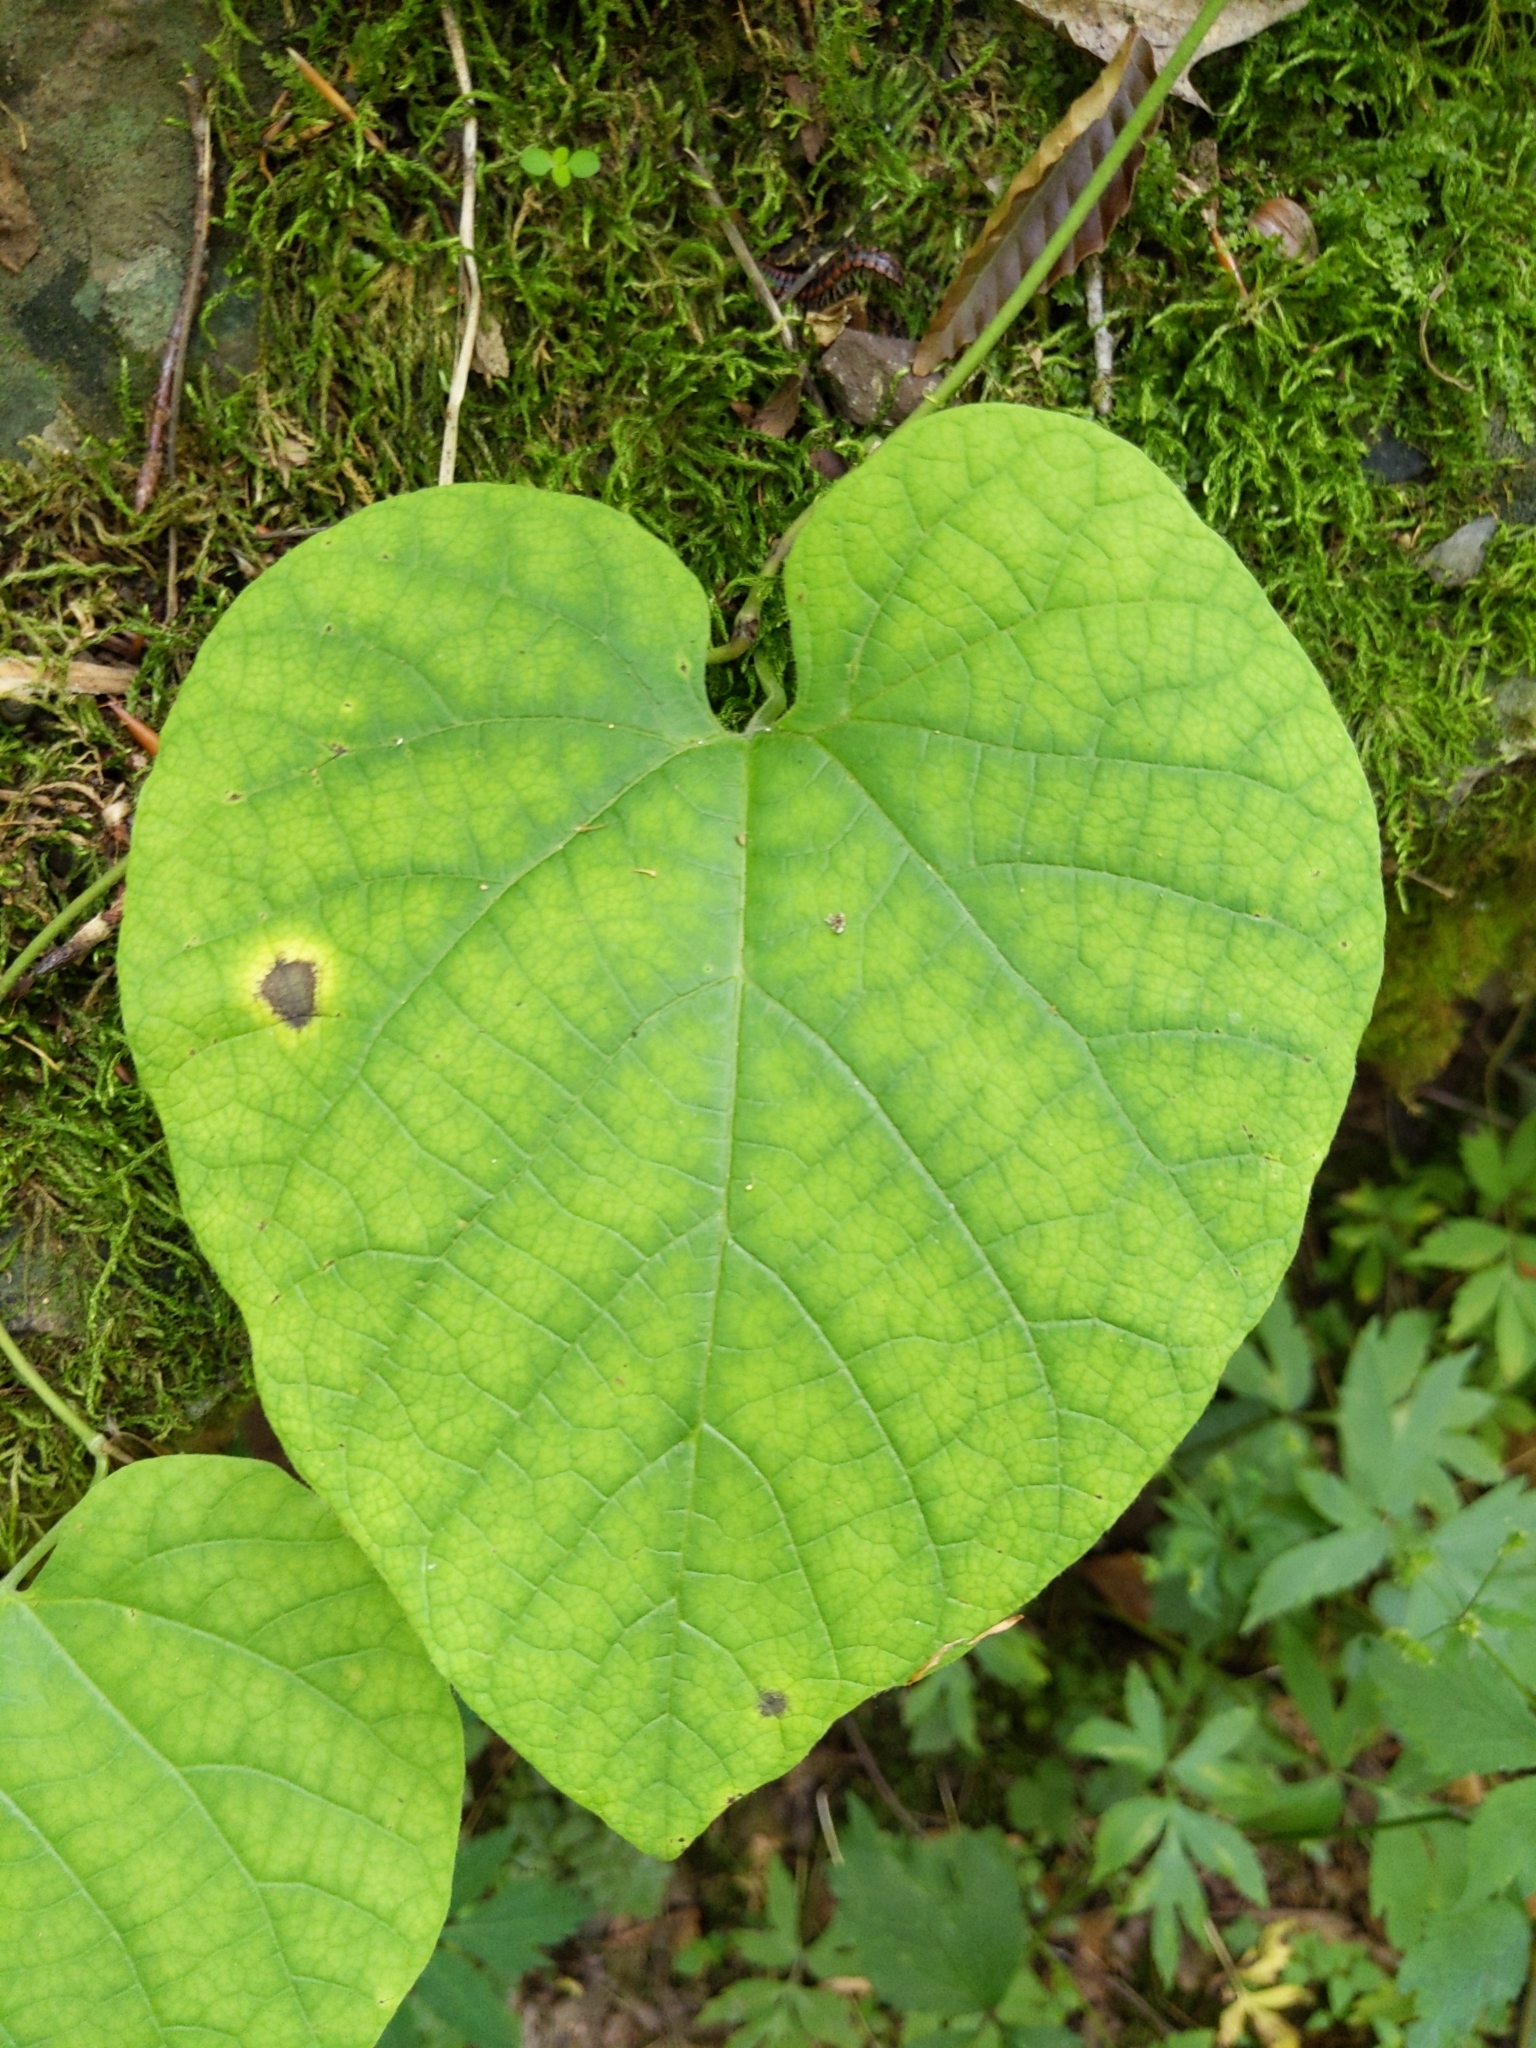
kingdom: Plantae
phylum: Tracheophyta
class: Magnoliopsida
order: Piperales
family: Aristolochiaceae
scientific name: Aristolochiaceae
